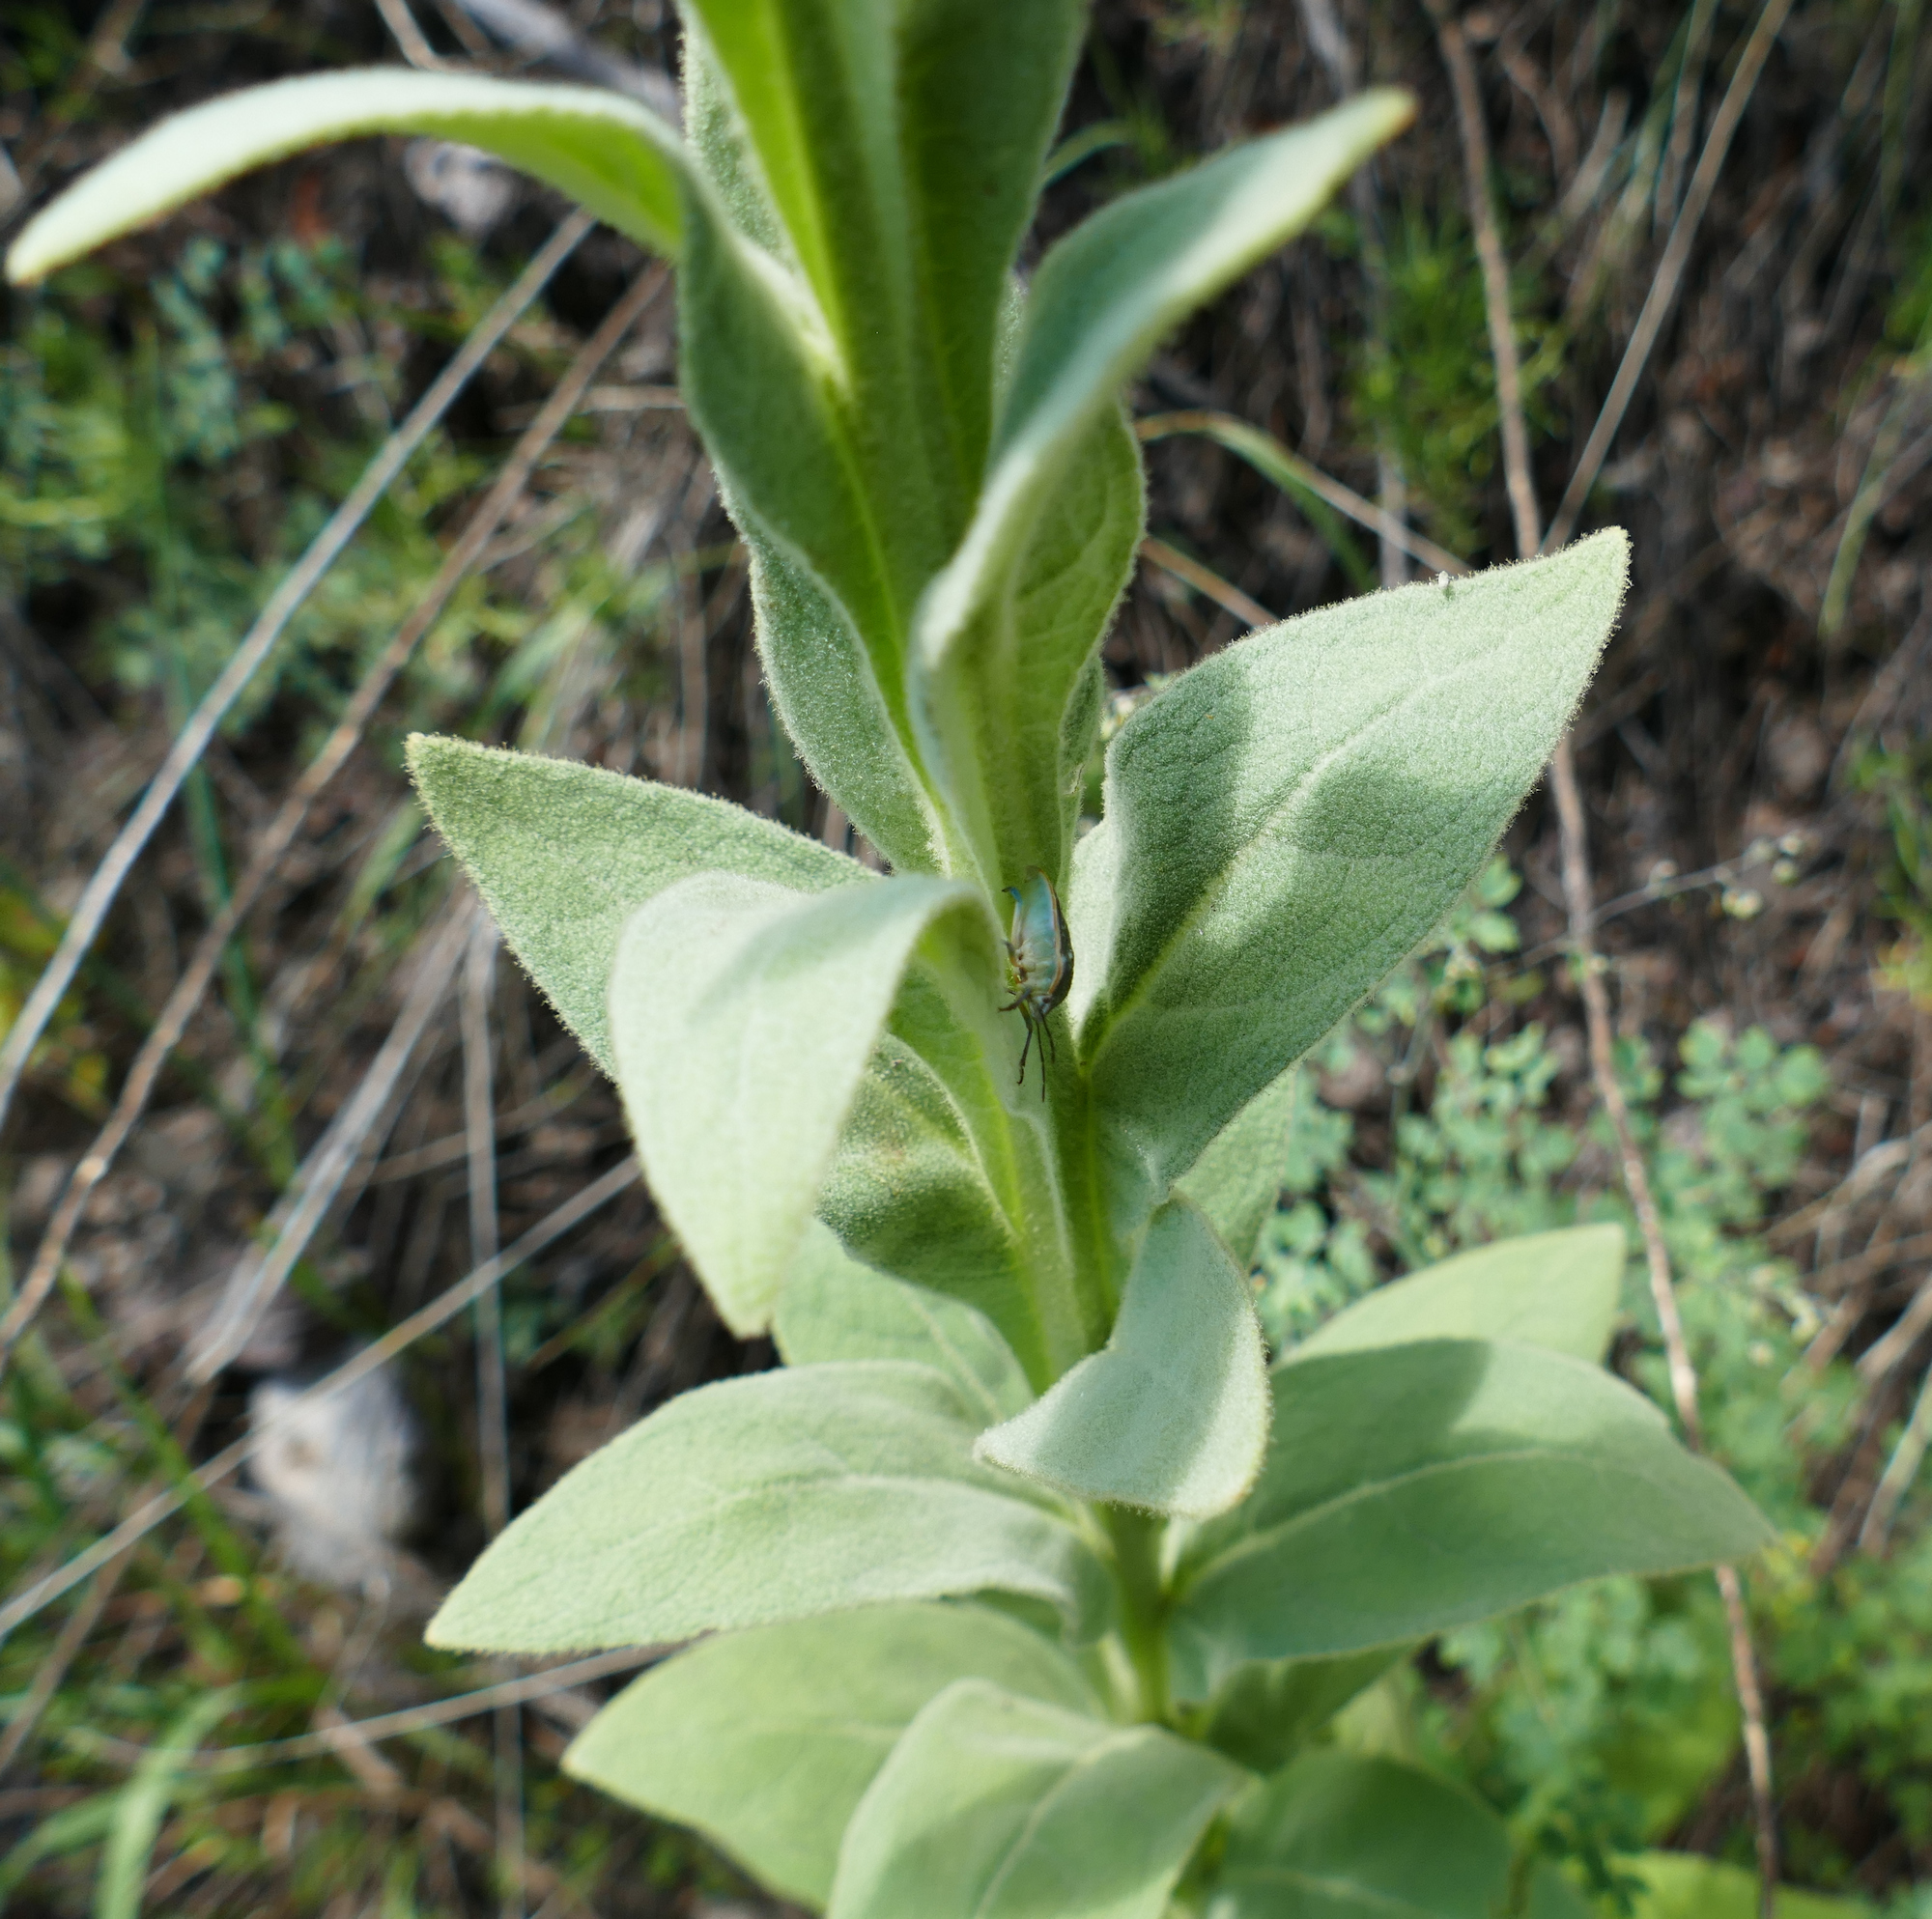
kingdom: Plantae
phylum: Tracheophyta
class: Magnoliopsida
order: Lamiales
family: Scrophulariaceae
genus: Verbascum
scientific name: Verbascum thapsus
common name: Common mullein
